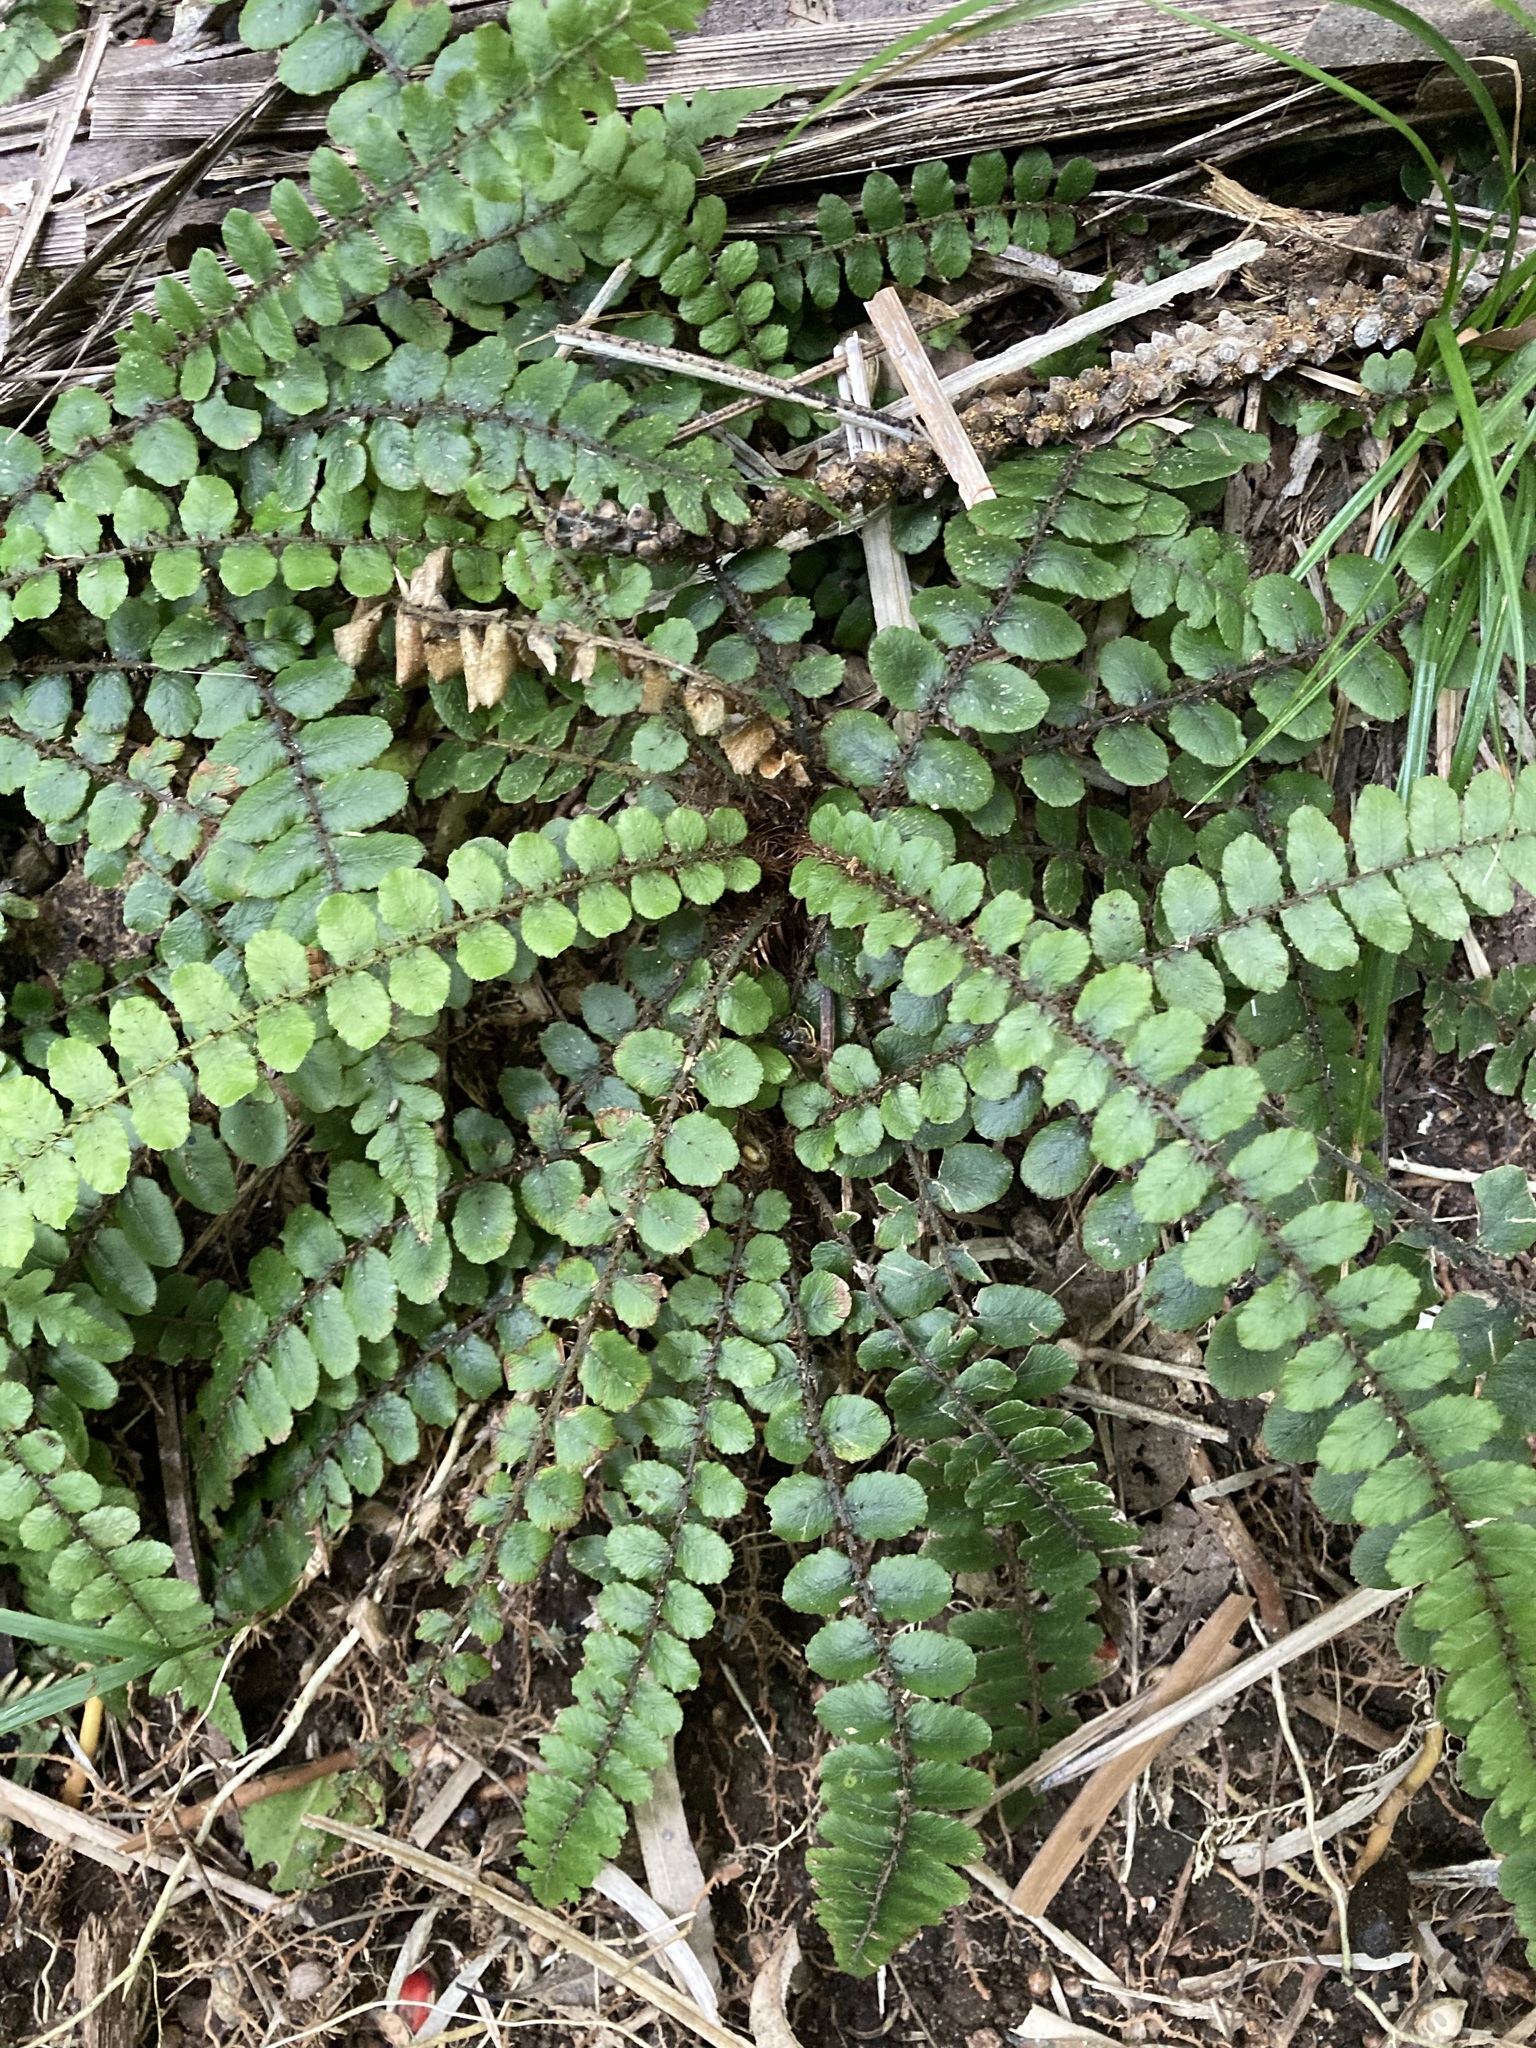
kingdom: Plantae
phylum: Tracheophyta
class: Polypodiopsida
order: Polypodiales
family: Blechnaceae
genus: Cranfillia
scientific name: Cranfillia fluviatilis
